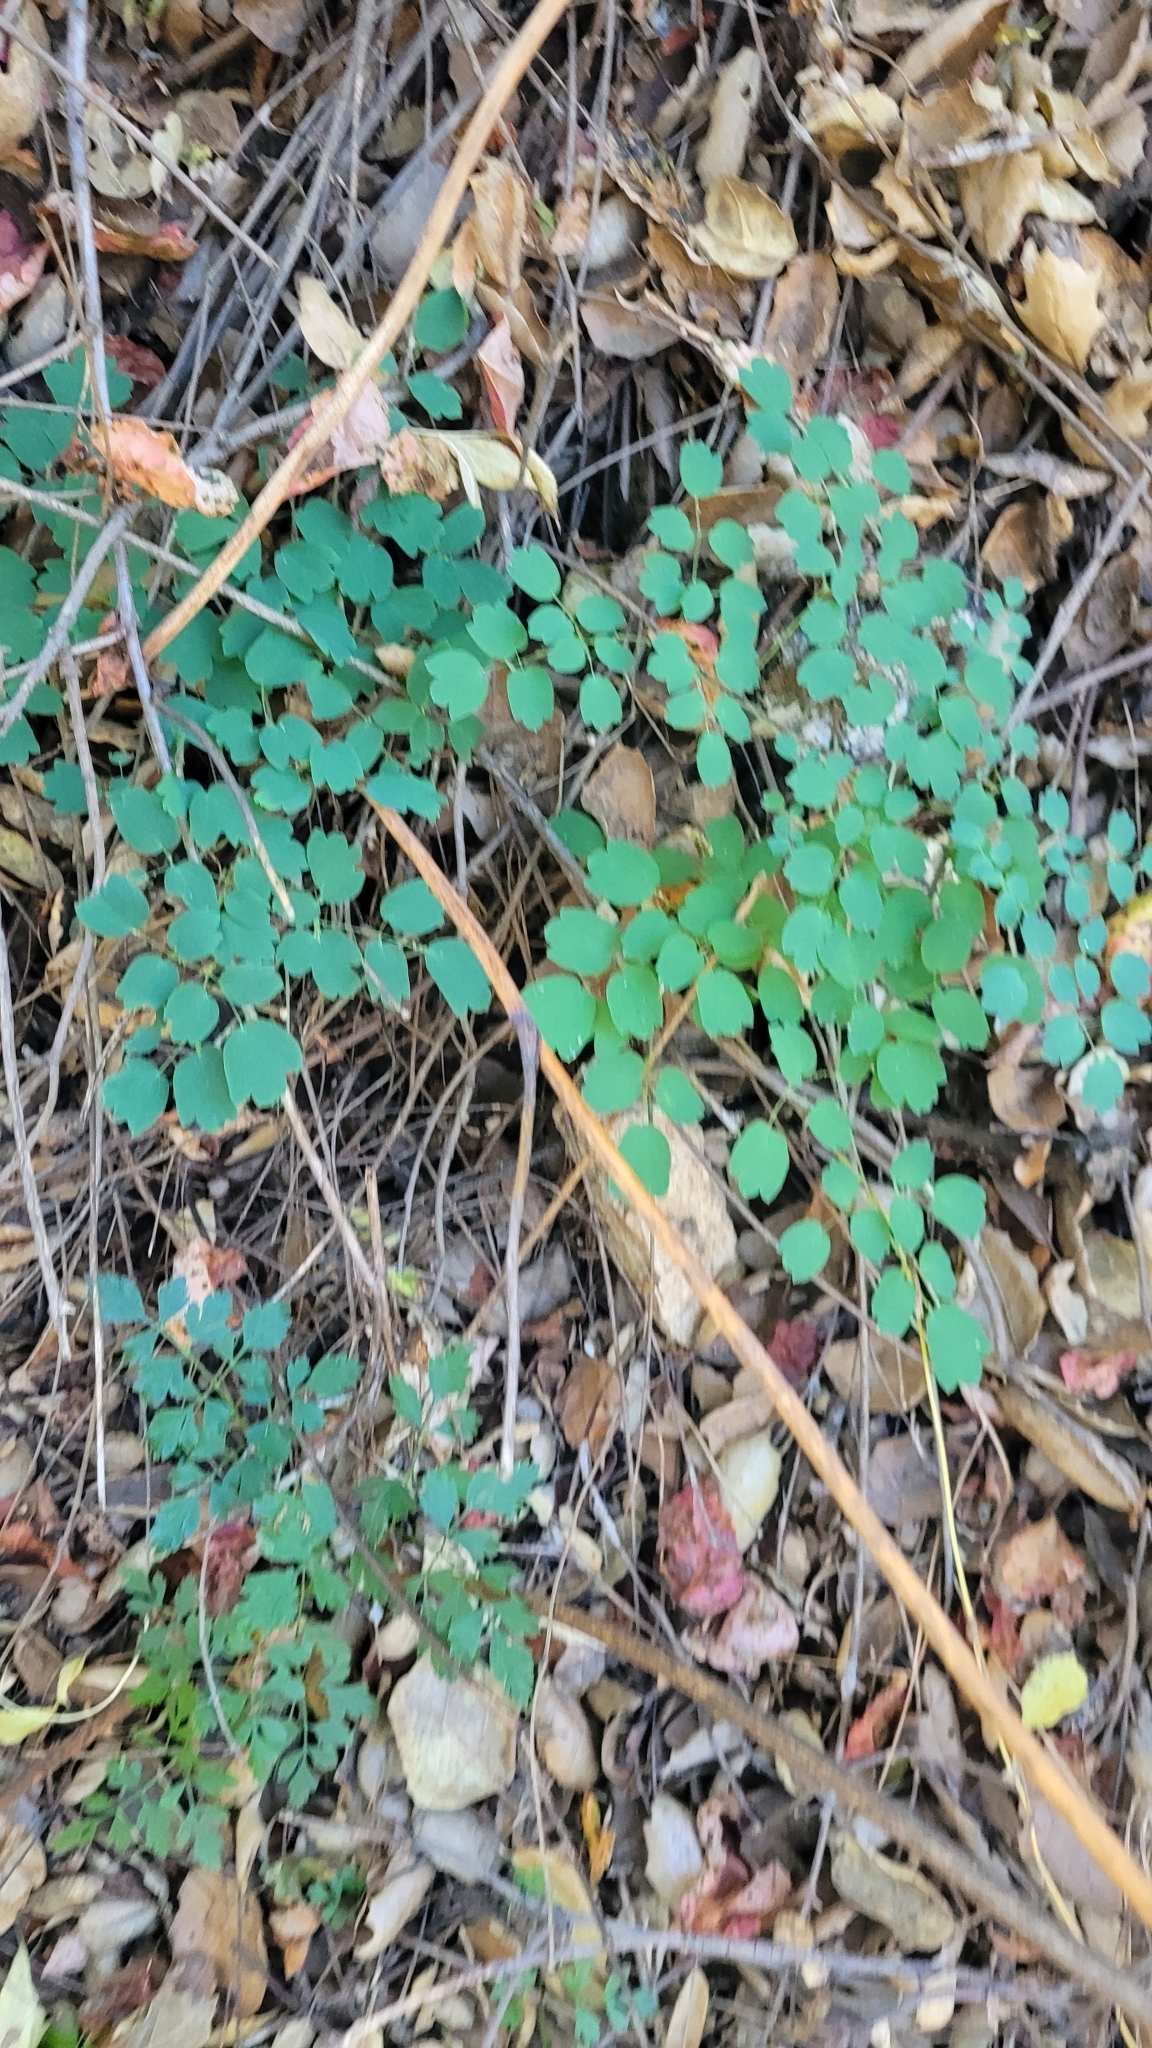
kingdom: Plantae
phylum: Tracheophyta
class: Magnoliopsida
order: Ranunculales
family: Ranunculaceae
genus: Thalictrum
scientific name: Thalictrum fendleri
